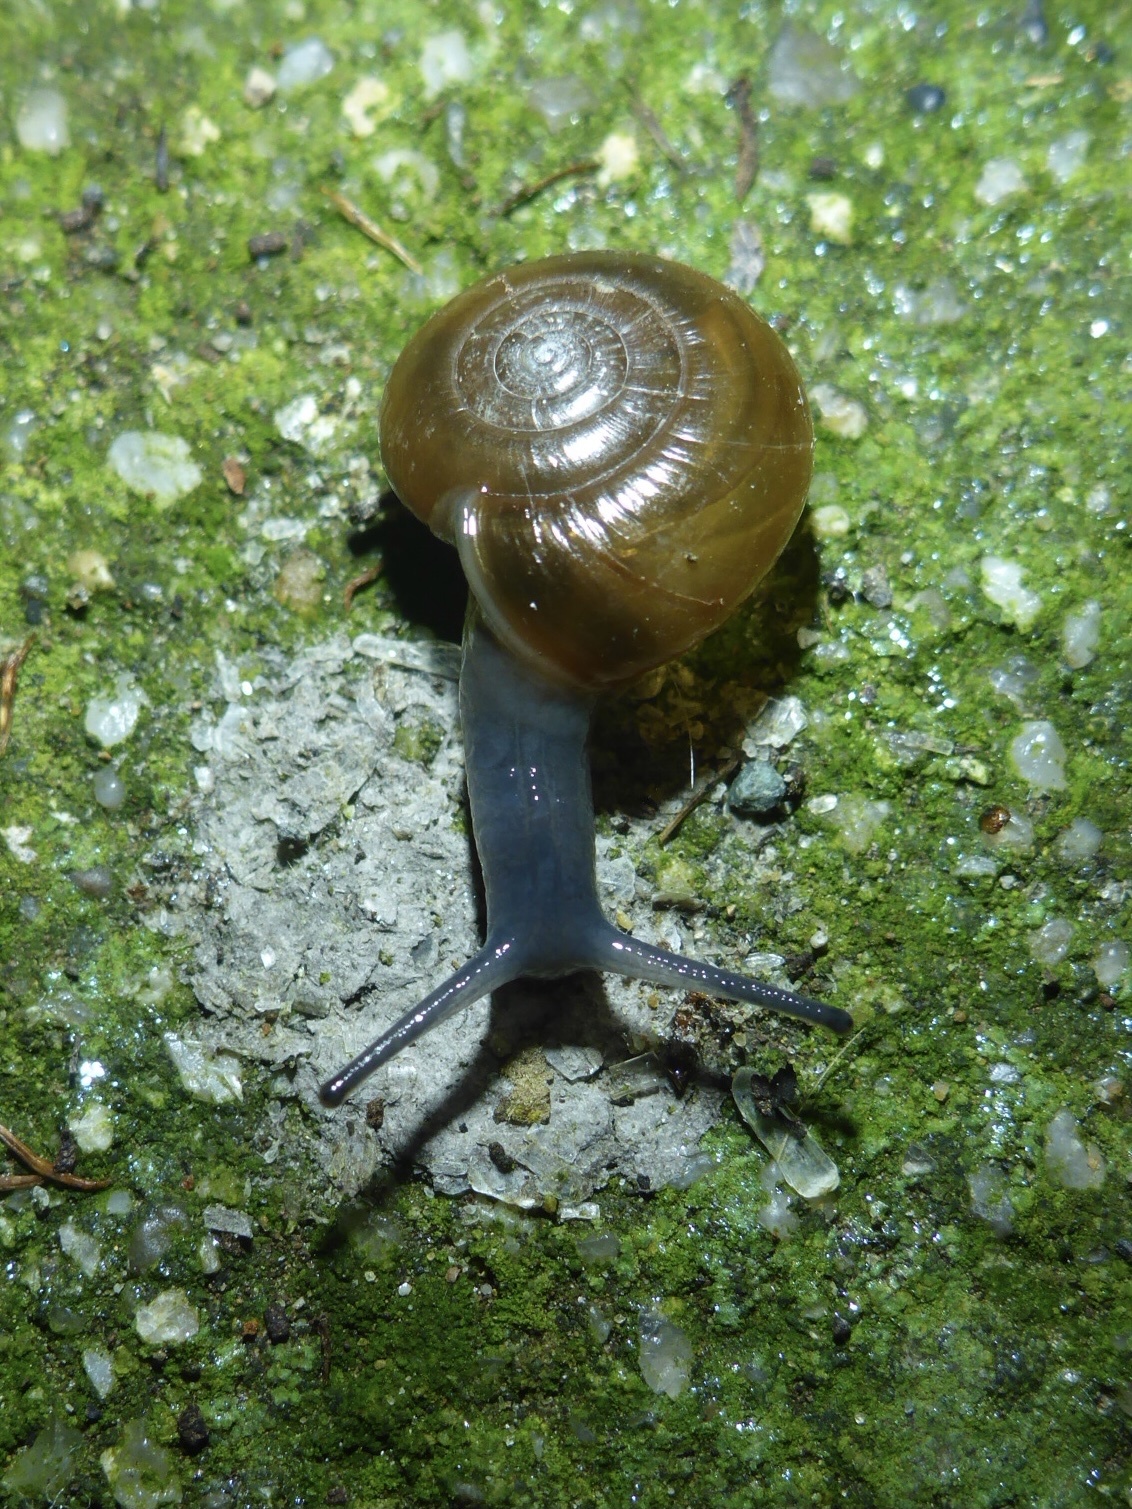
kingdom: Animalia
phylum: Mollusca
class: Gastropoda
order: Stylommatophora
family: Oxychilidae
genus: Oxychilus
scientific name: Oxychilus draparnaudi
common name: Draparnaud's glass snail
